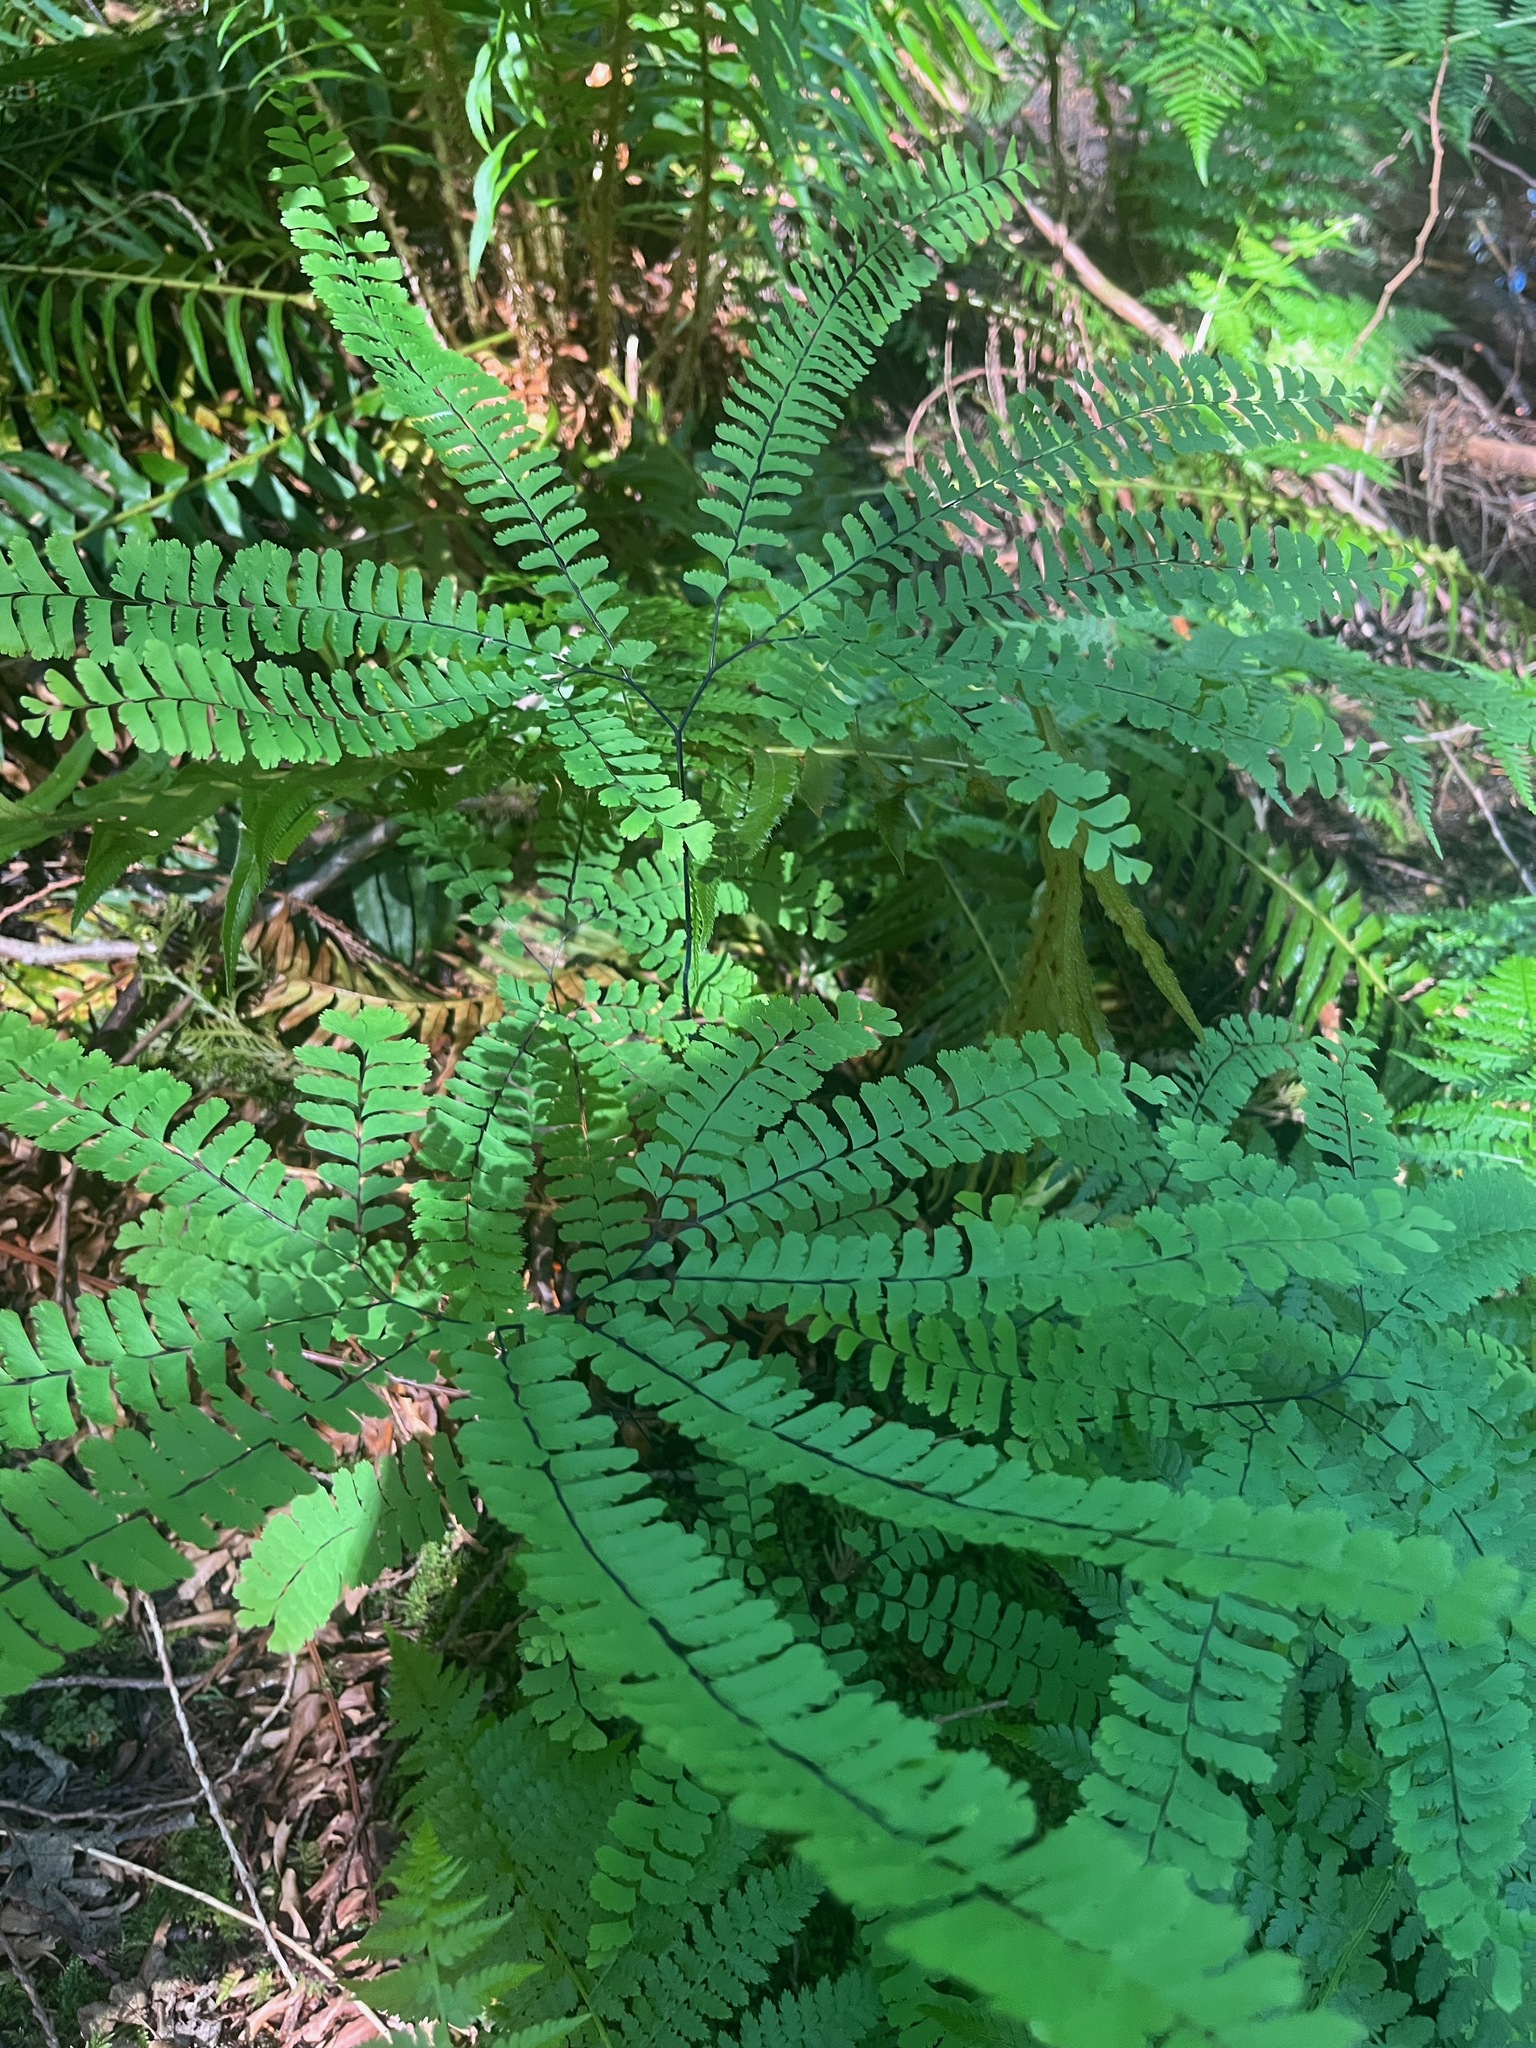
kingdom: Plantae
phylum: Tracheophyta
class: Polypodiopsida
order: Polypodiales
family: Pteridaceae
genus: Adiantum
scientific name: Adiantum aleuticum
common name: Aleutian maidenhair fern
